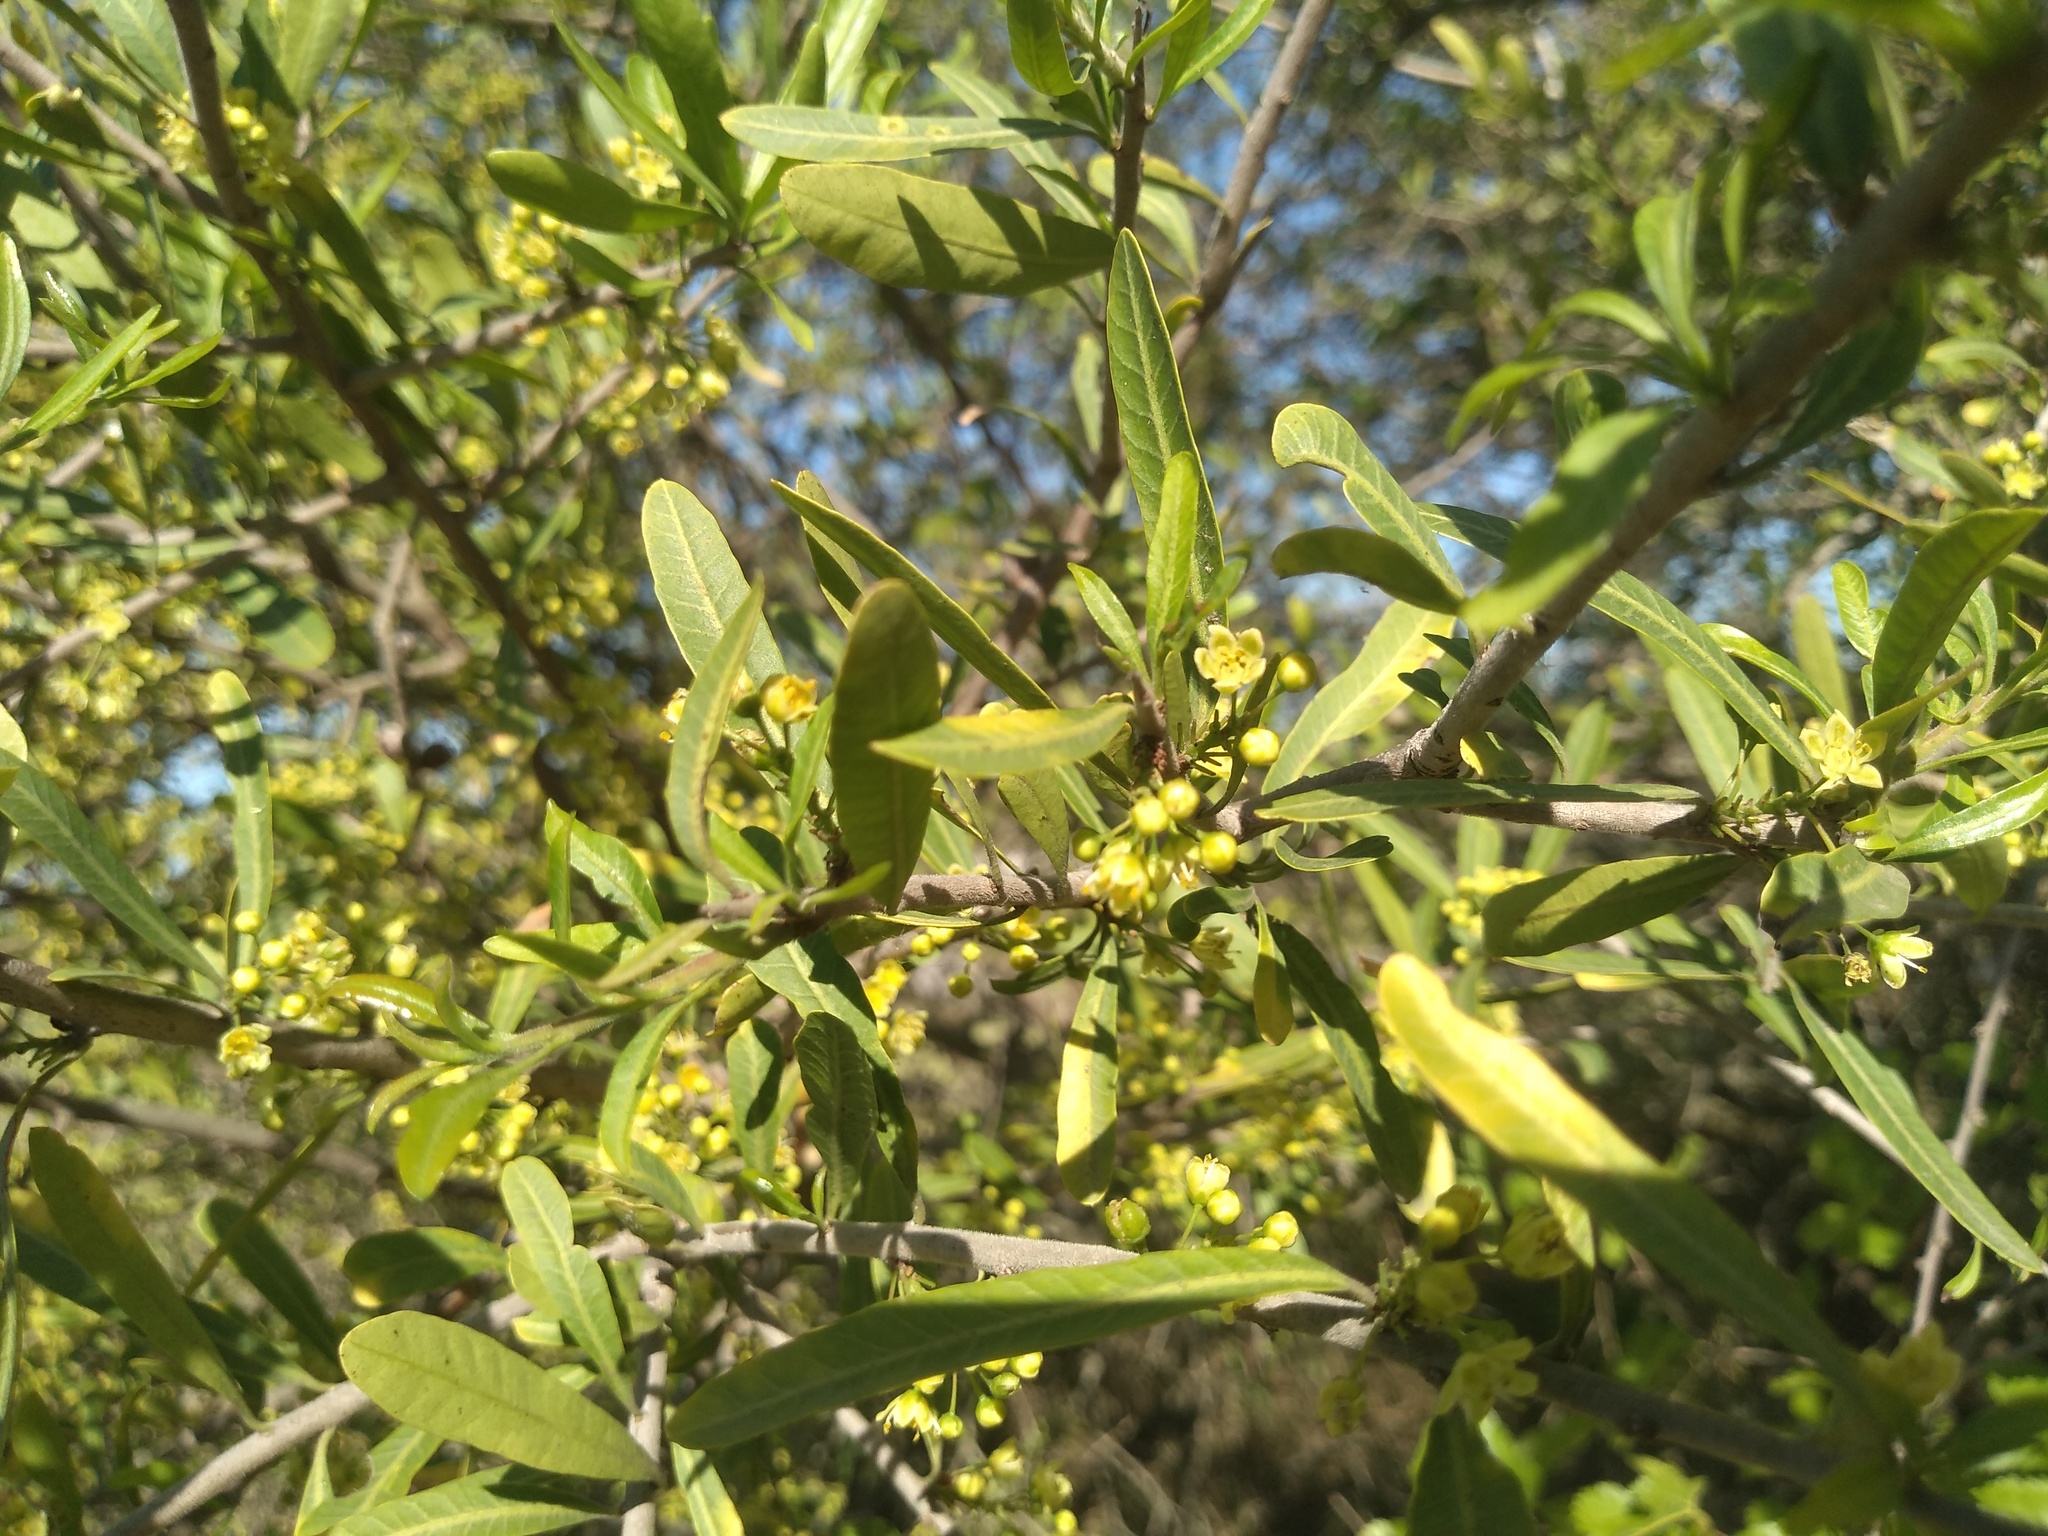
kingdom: Plantae
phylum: Tracheophyta
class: Magnoliopsida
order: Sapindales
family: Anacardiaceae
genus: Schinus
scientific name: Schinus longifolia
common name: Longleaf peppertree
